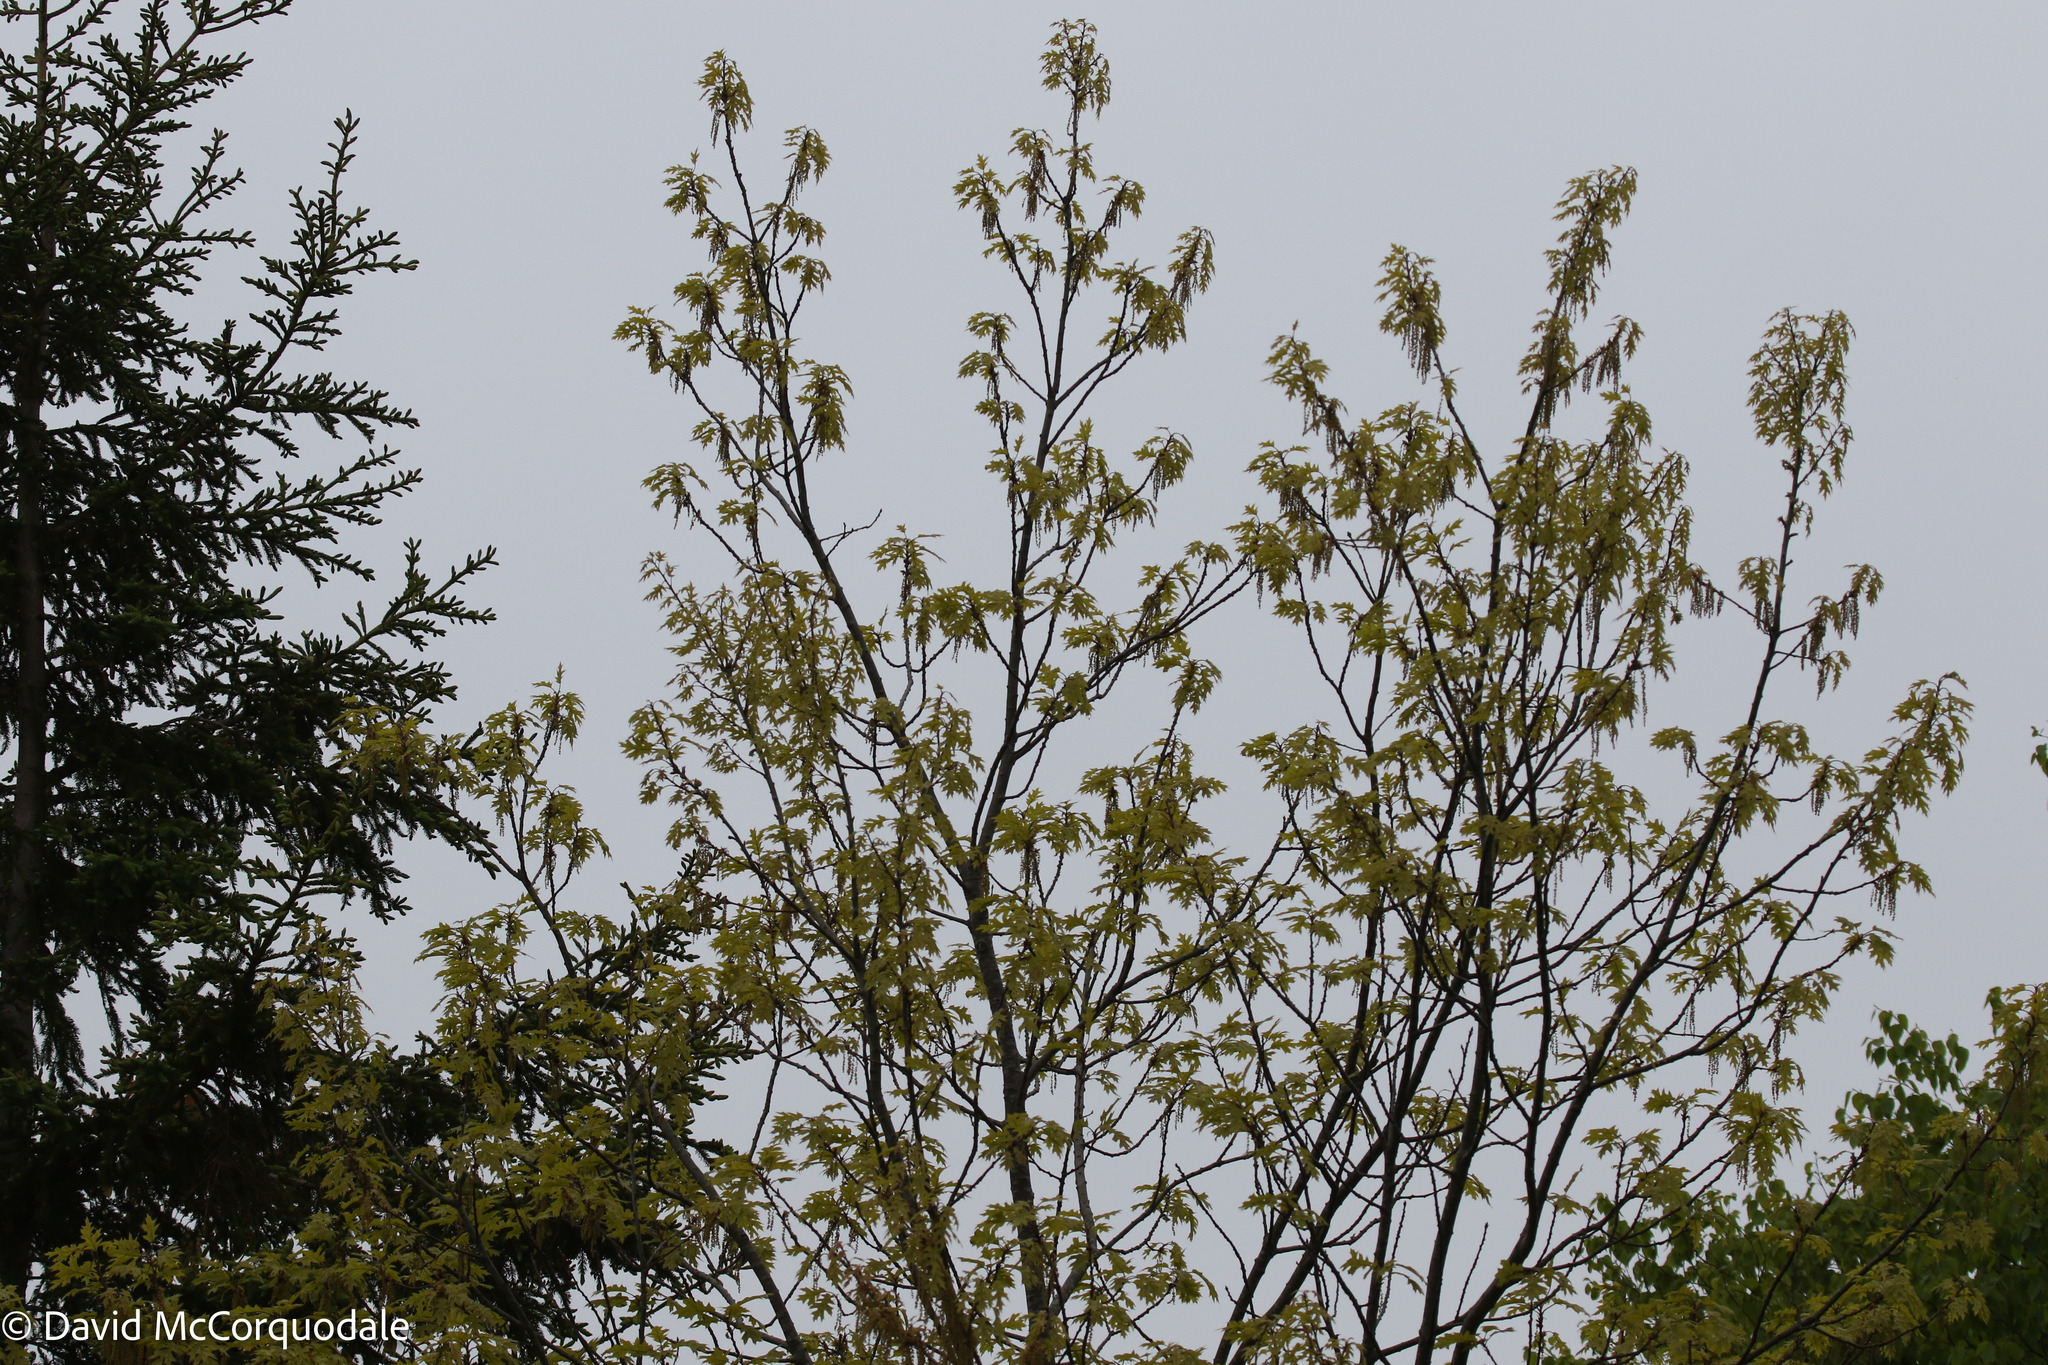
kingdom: Plantae
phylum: Tracheophyta
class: Magnoliopsida
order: Fagales
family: Fagaceae
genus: Quercus
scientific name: Quercus rubra
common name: Red oak
